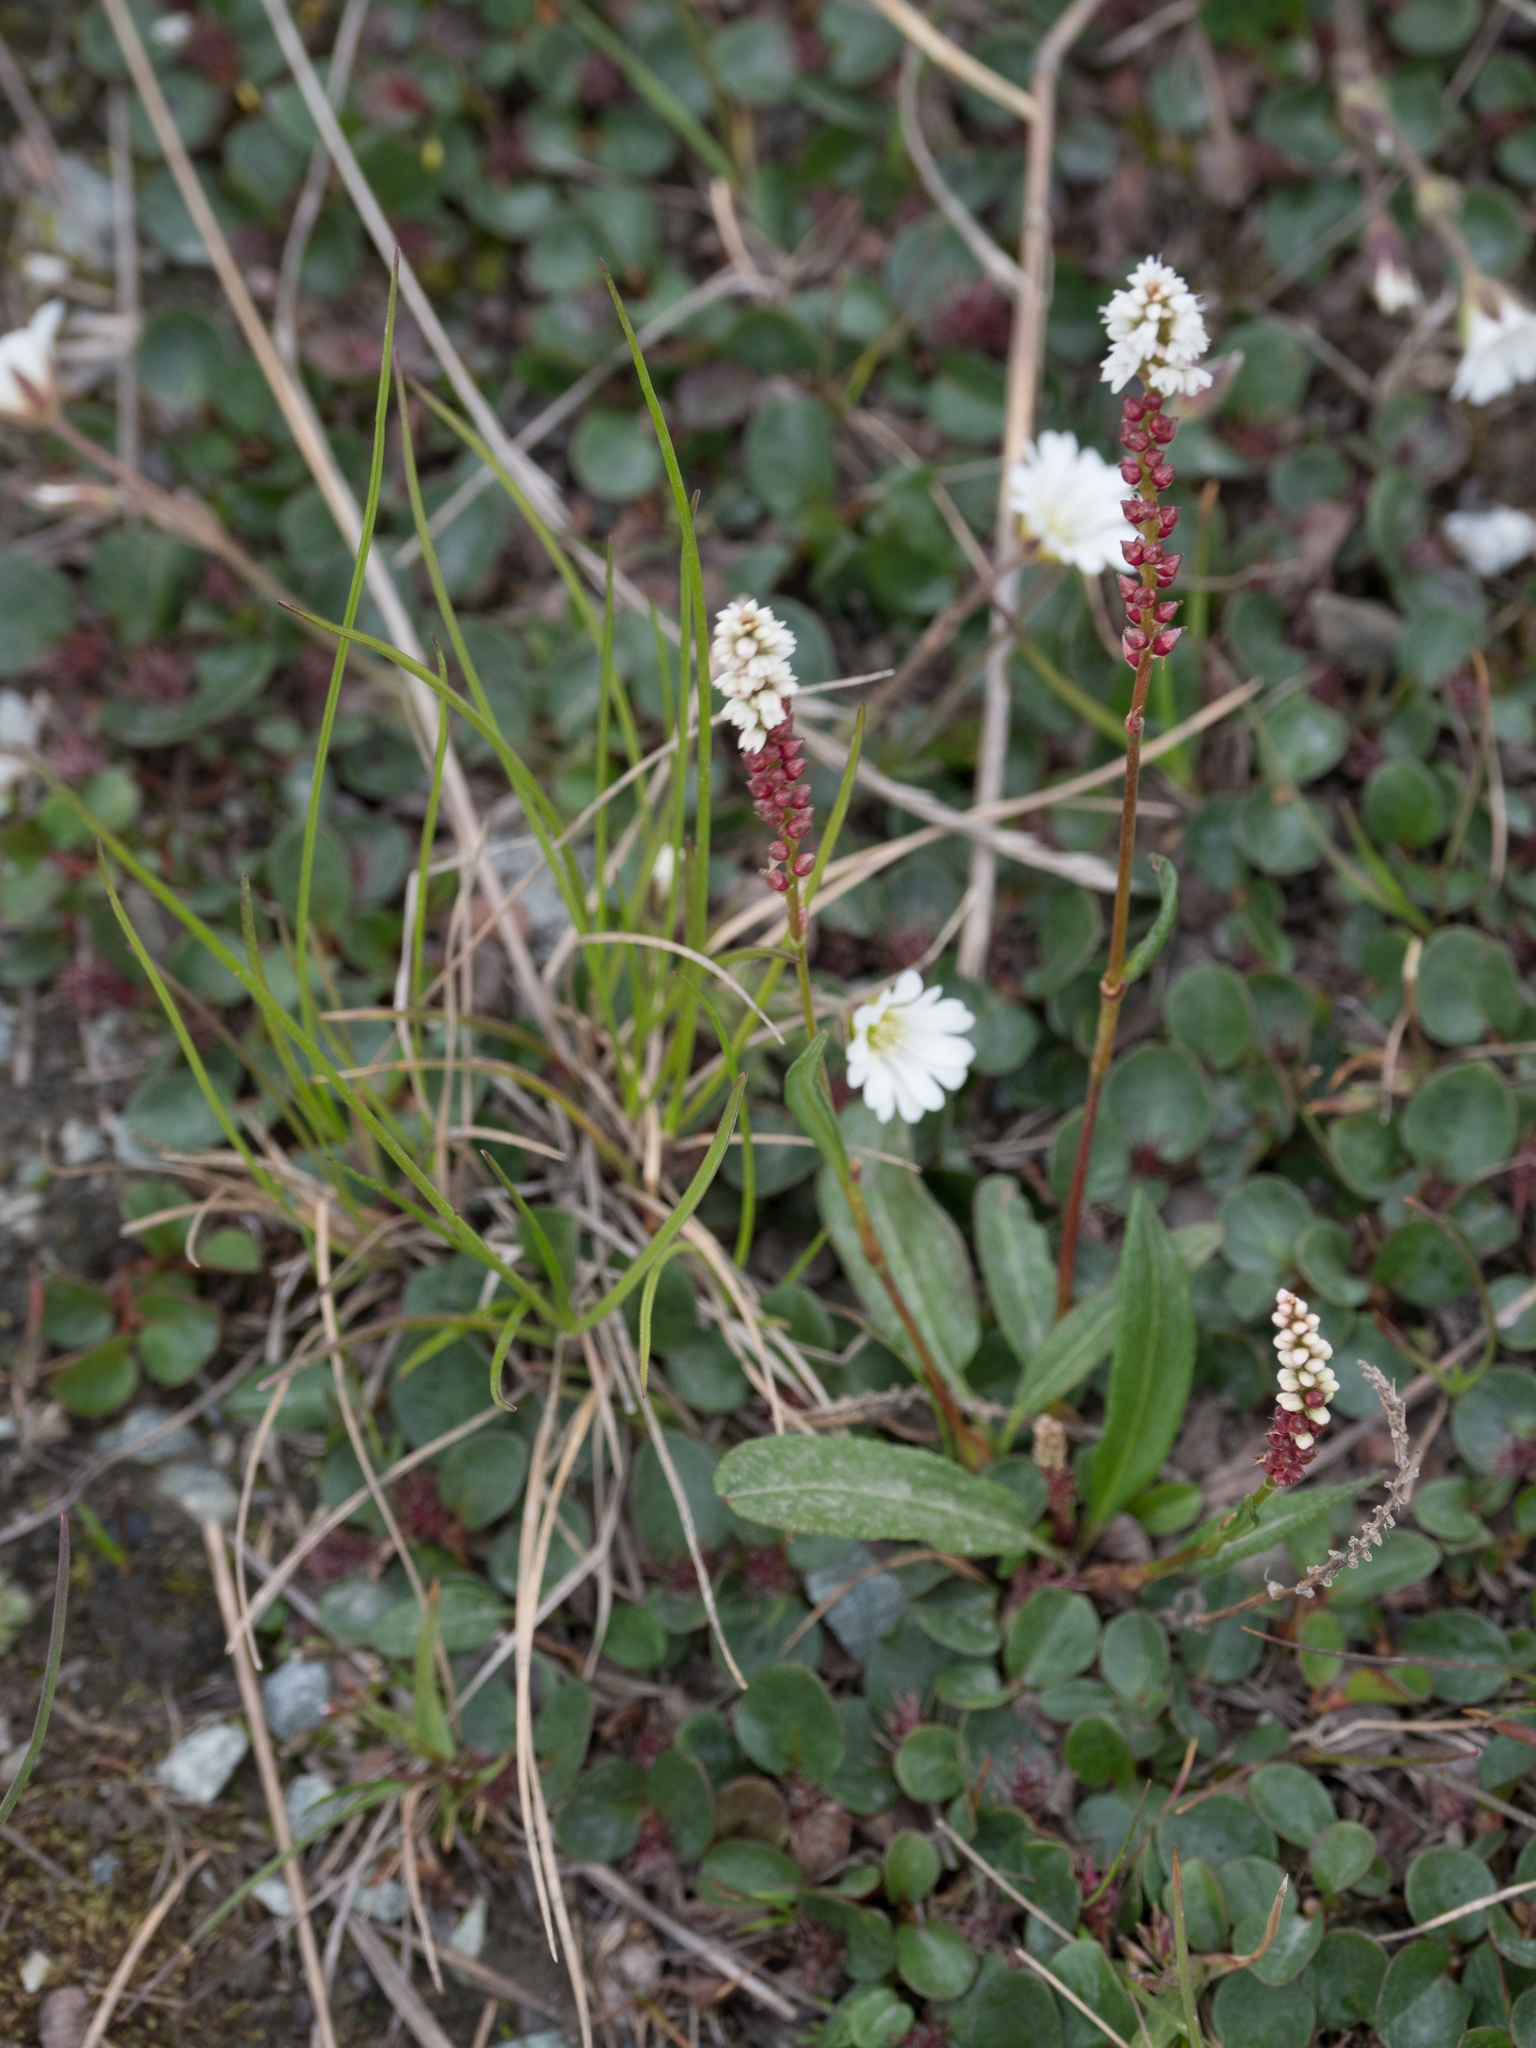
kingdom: Plantae
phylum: Tracheophyta
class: Magnoliopsida
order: Caryophyllales
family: Polygonaceae
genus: Bistorta
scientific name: Bistorta vivipara
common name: Alpine bistort
